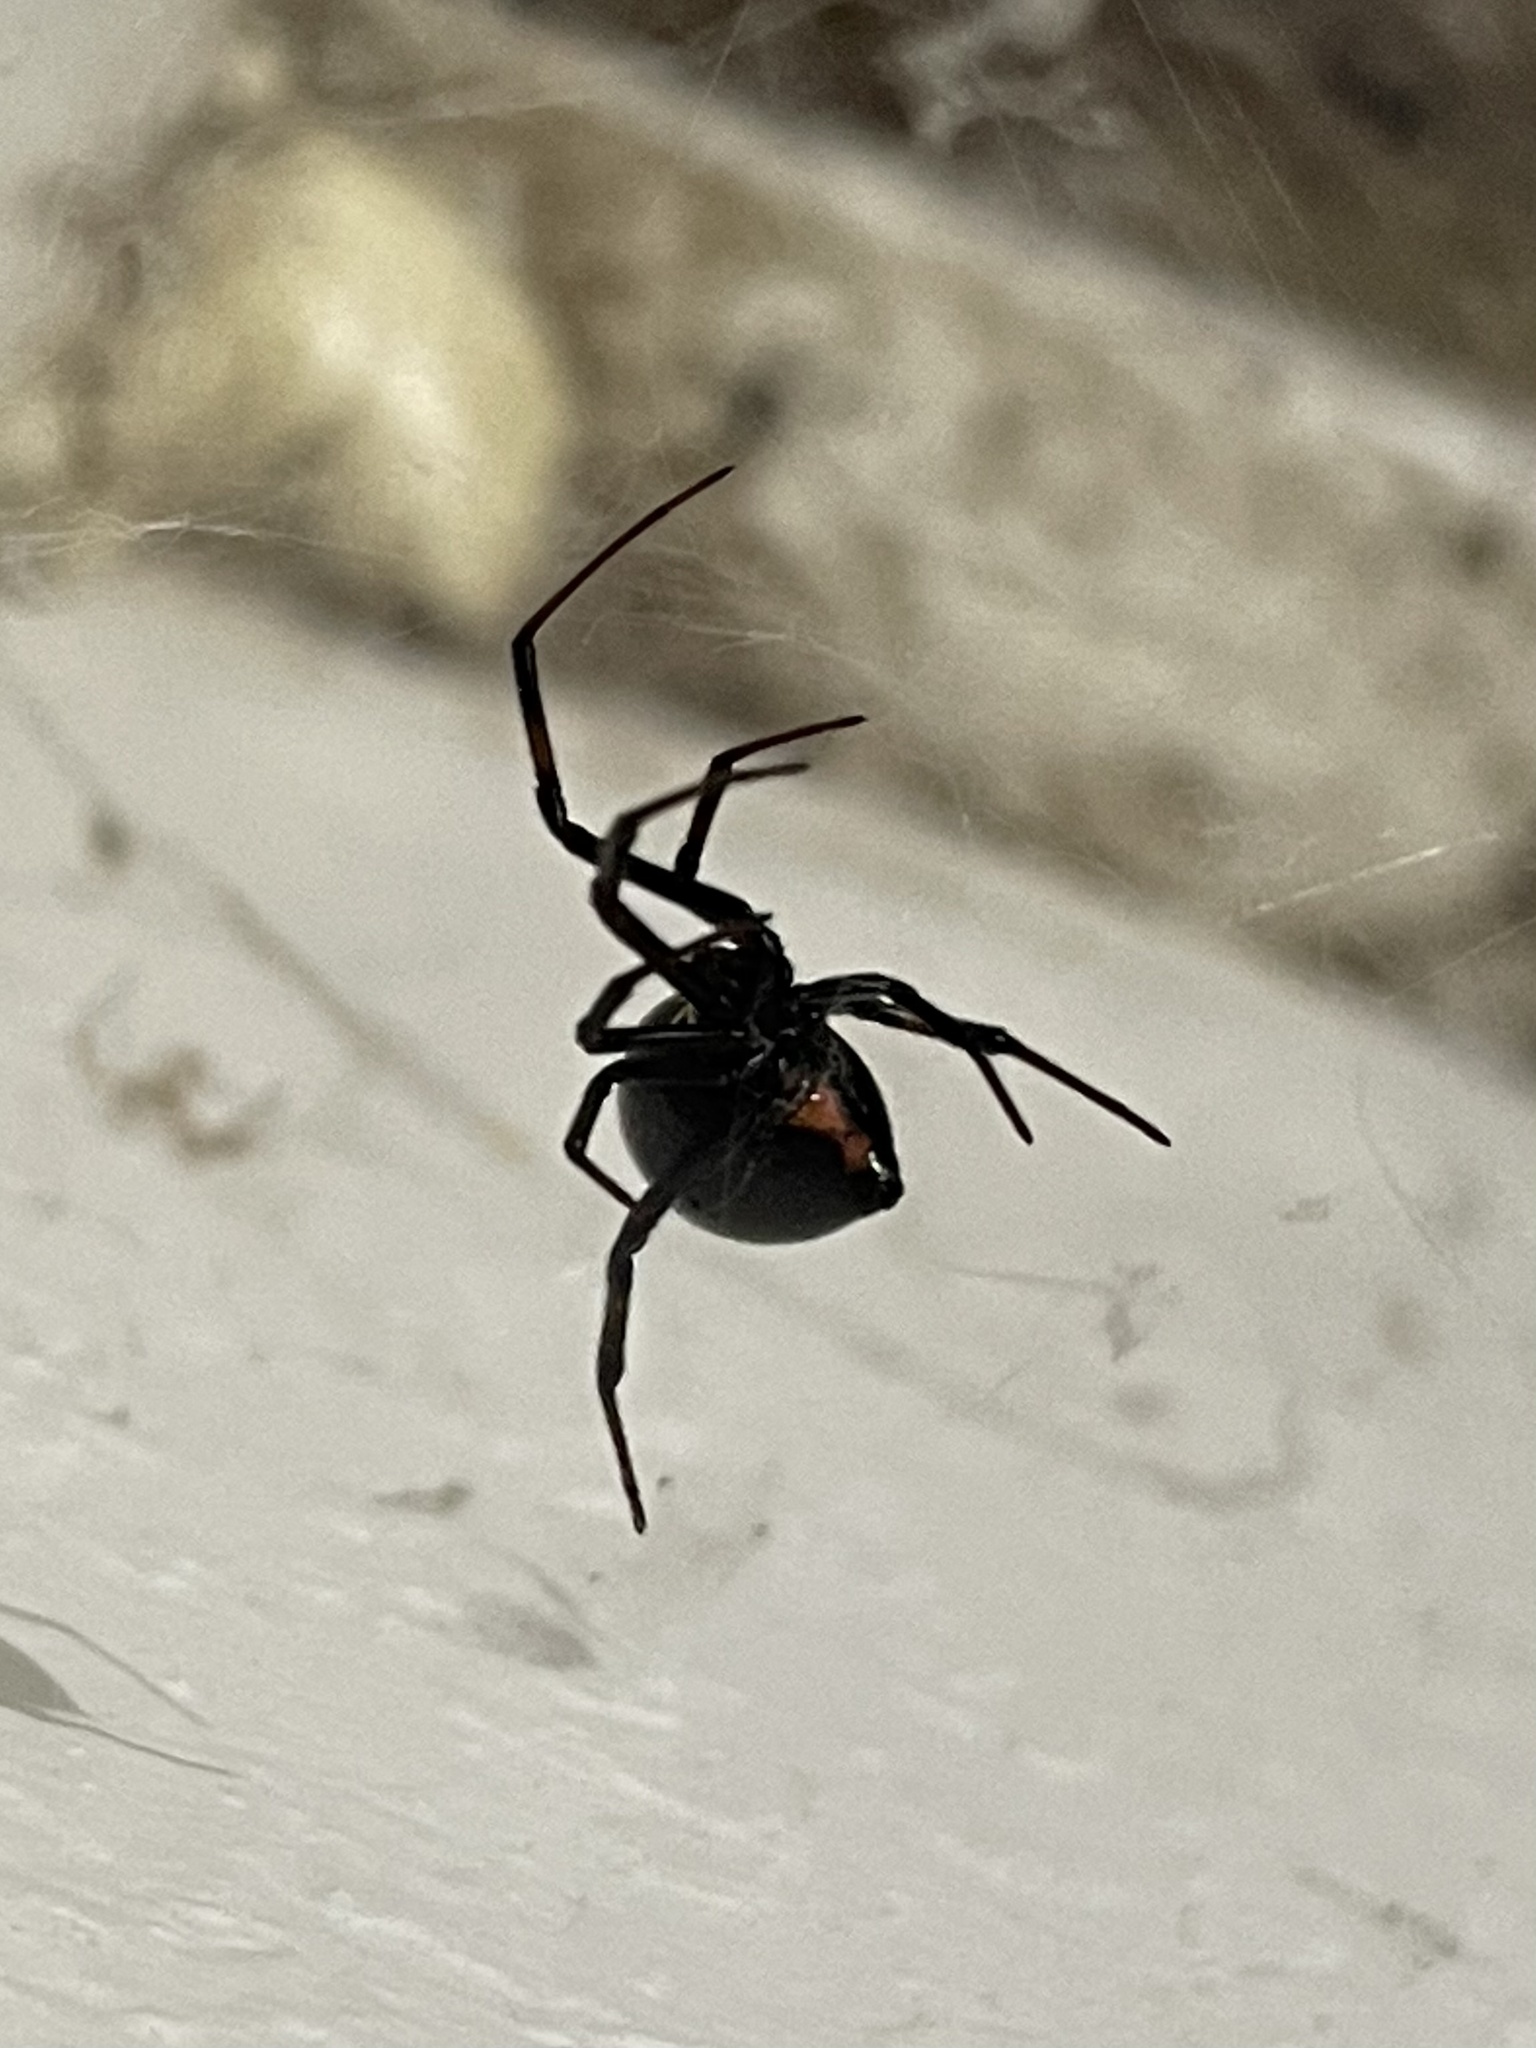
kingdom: Animalia
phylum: Arthropoda
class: Arachnida
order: Araneae
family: Theridiidae
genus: Latrodectus
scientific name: Latrodectus hesperus
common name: Western black widow
